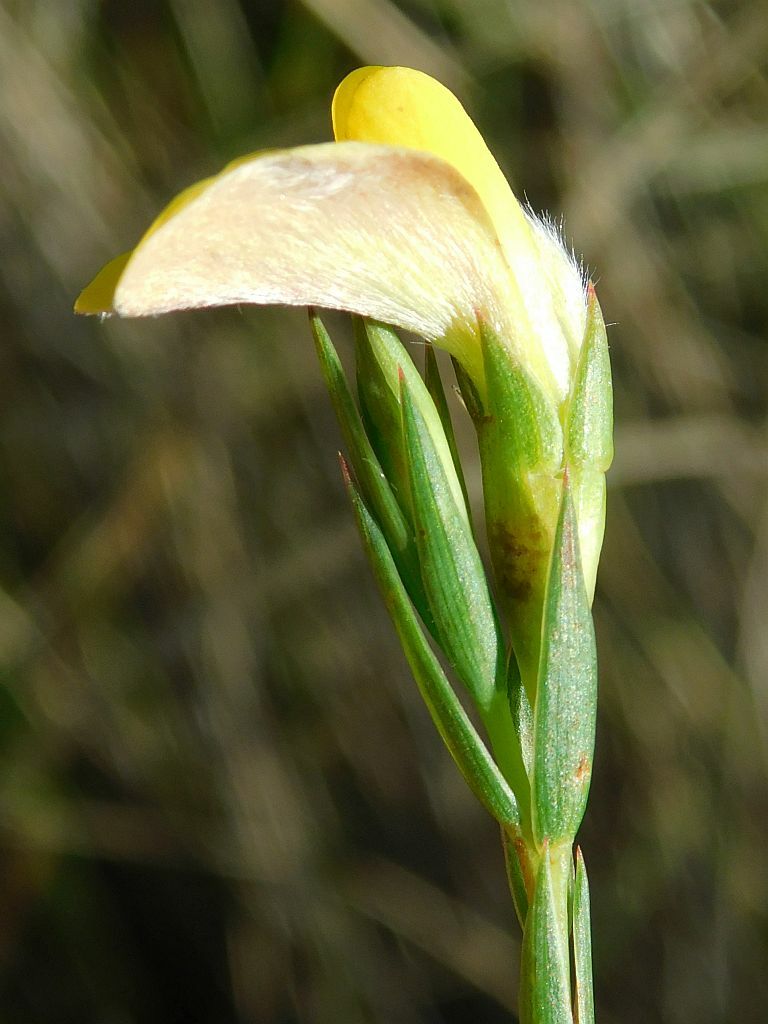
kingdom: Plantae
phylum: Tracheophyta
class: Magnoliopsida
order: Fabales
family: Fabaceae
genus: Aspalathus
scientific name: Aspalathus angustifolia
